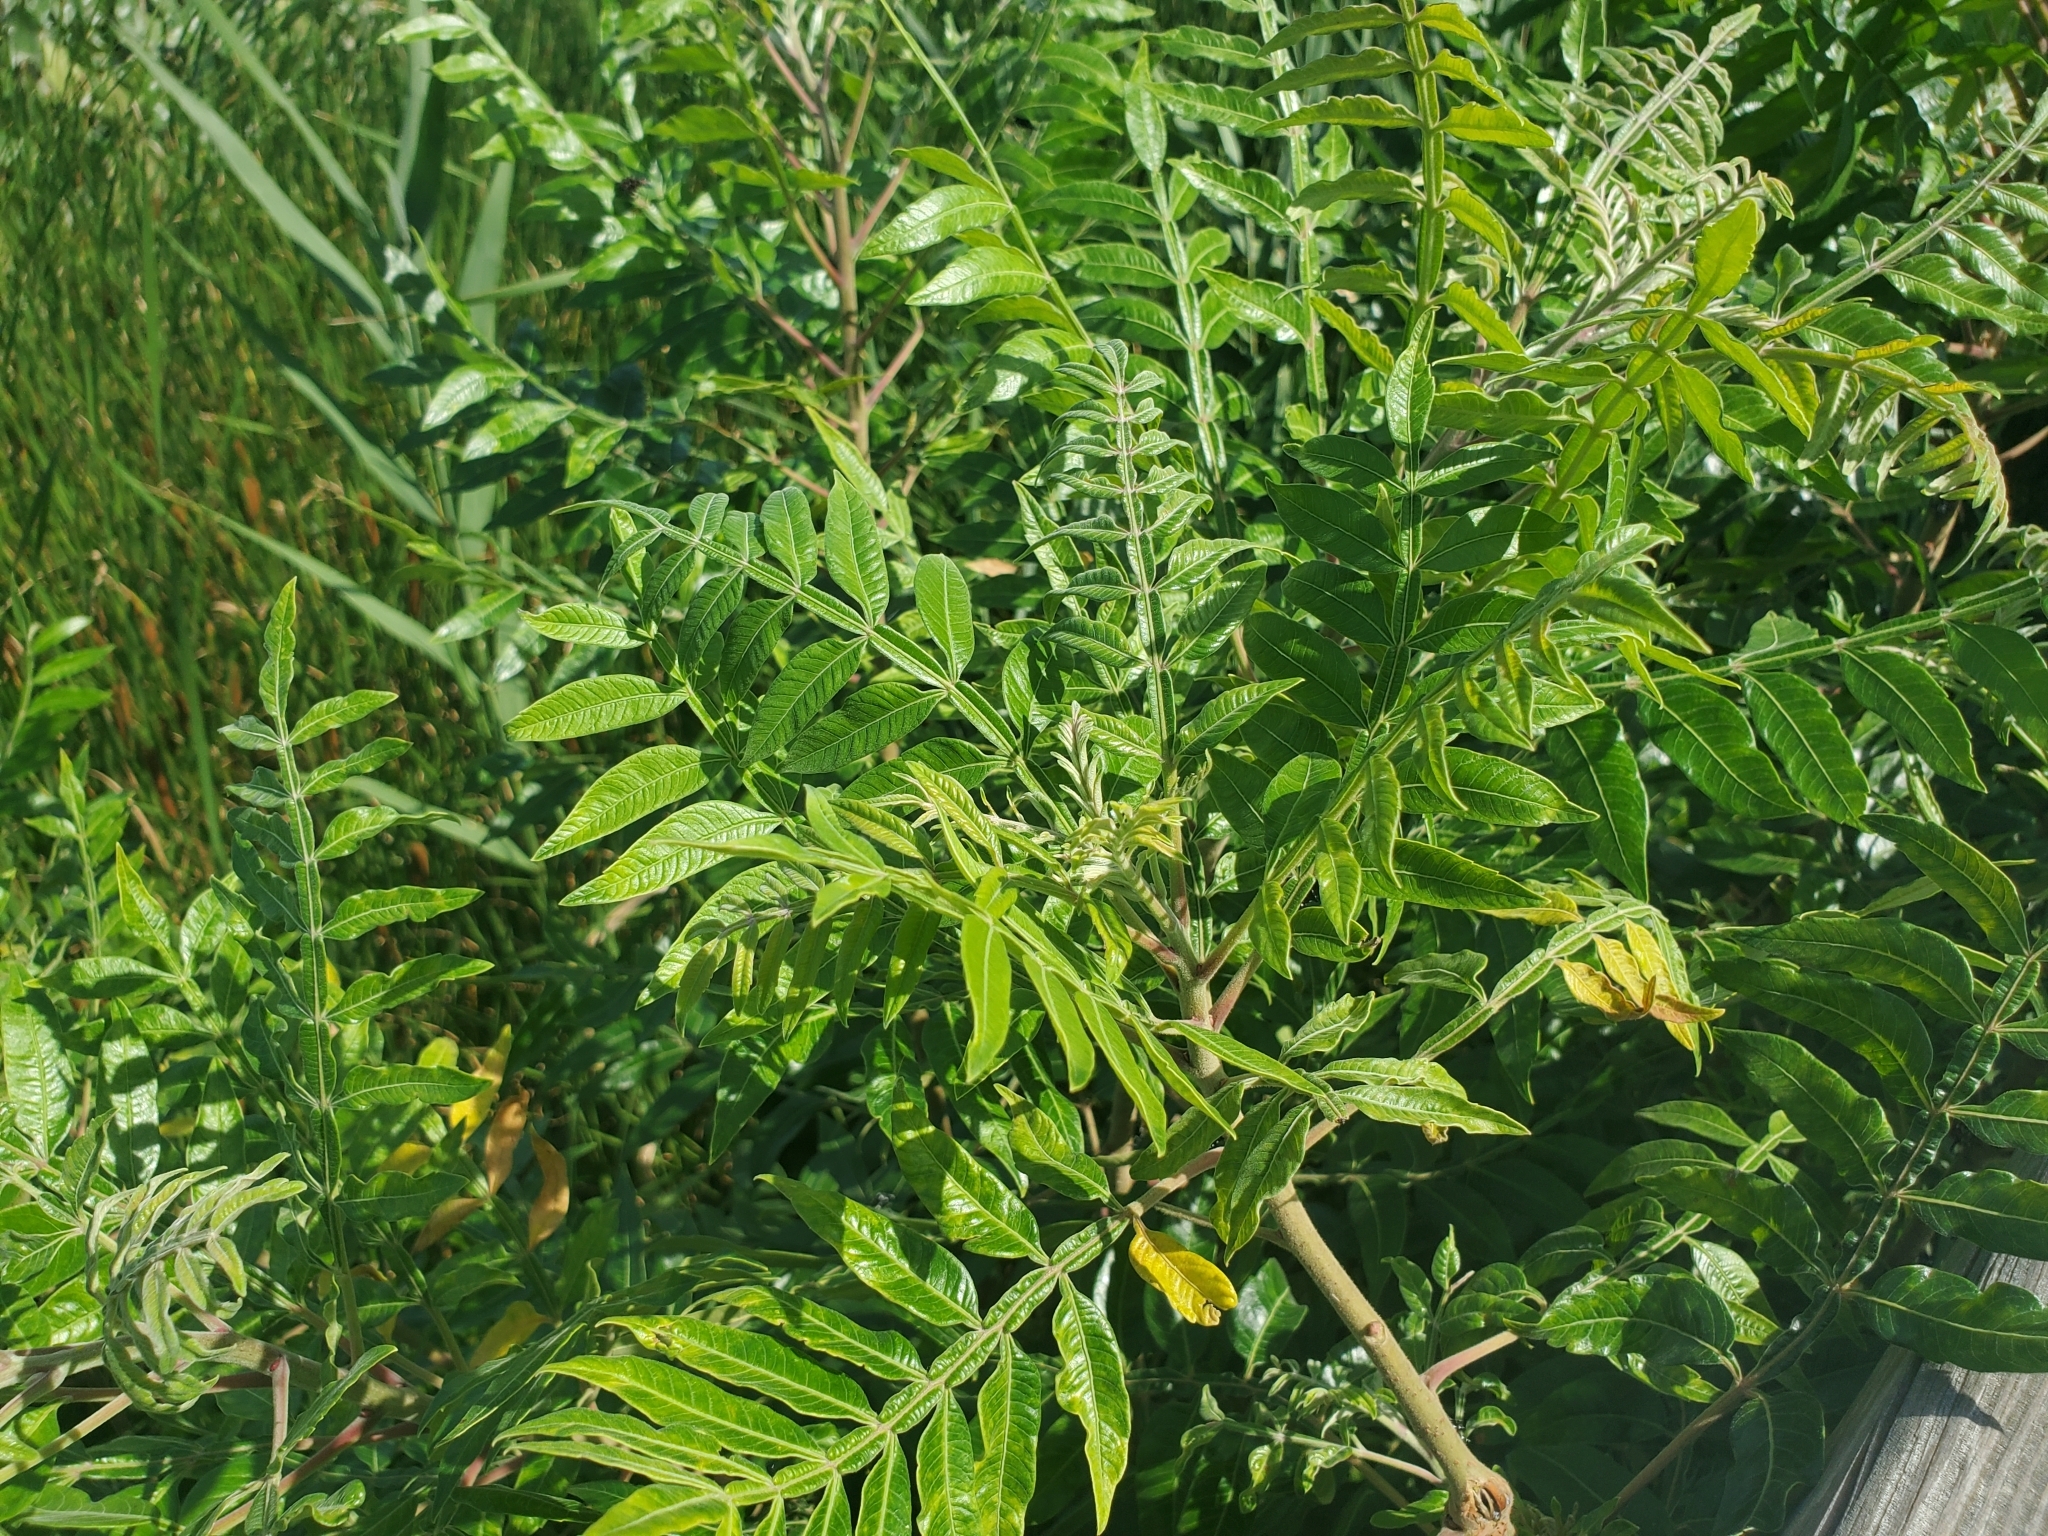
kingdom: Plantae
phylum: Tracheophyta
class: Magnoliopsida
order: Sapindales
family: Anacardiaceae
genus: Rhus
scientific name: Rhus copallina
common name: Shining sumac
